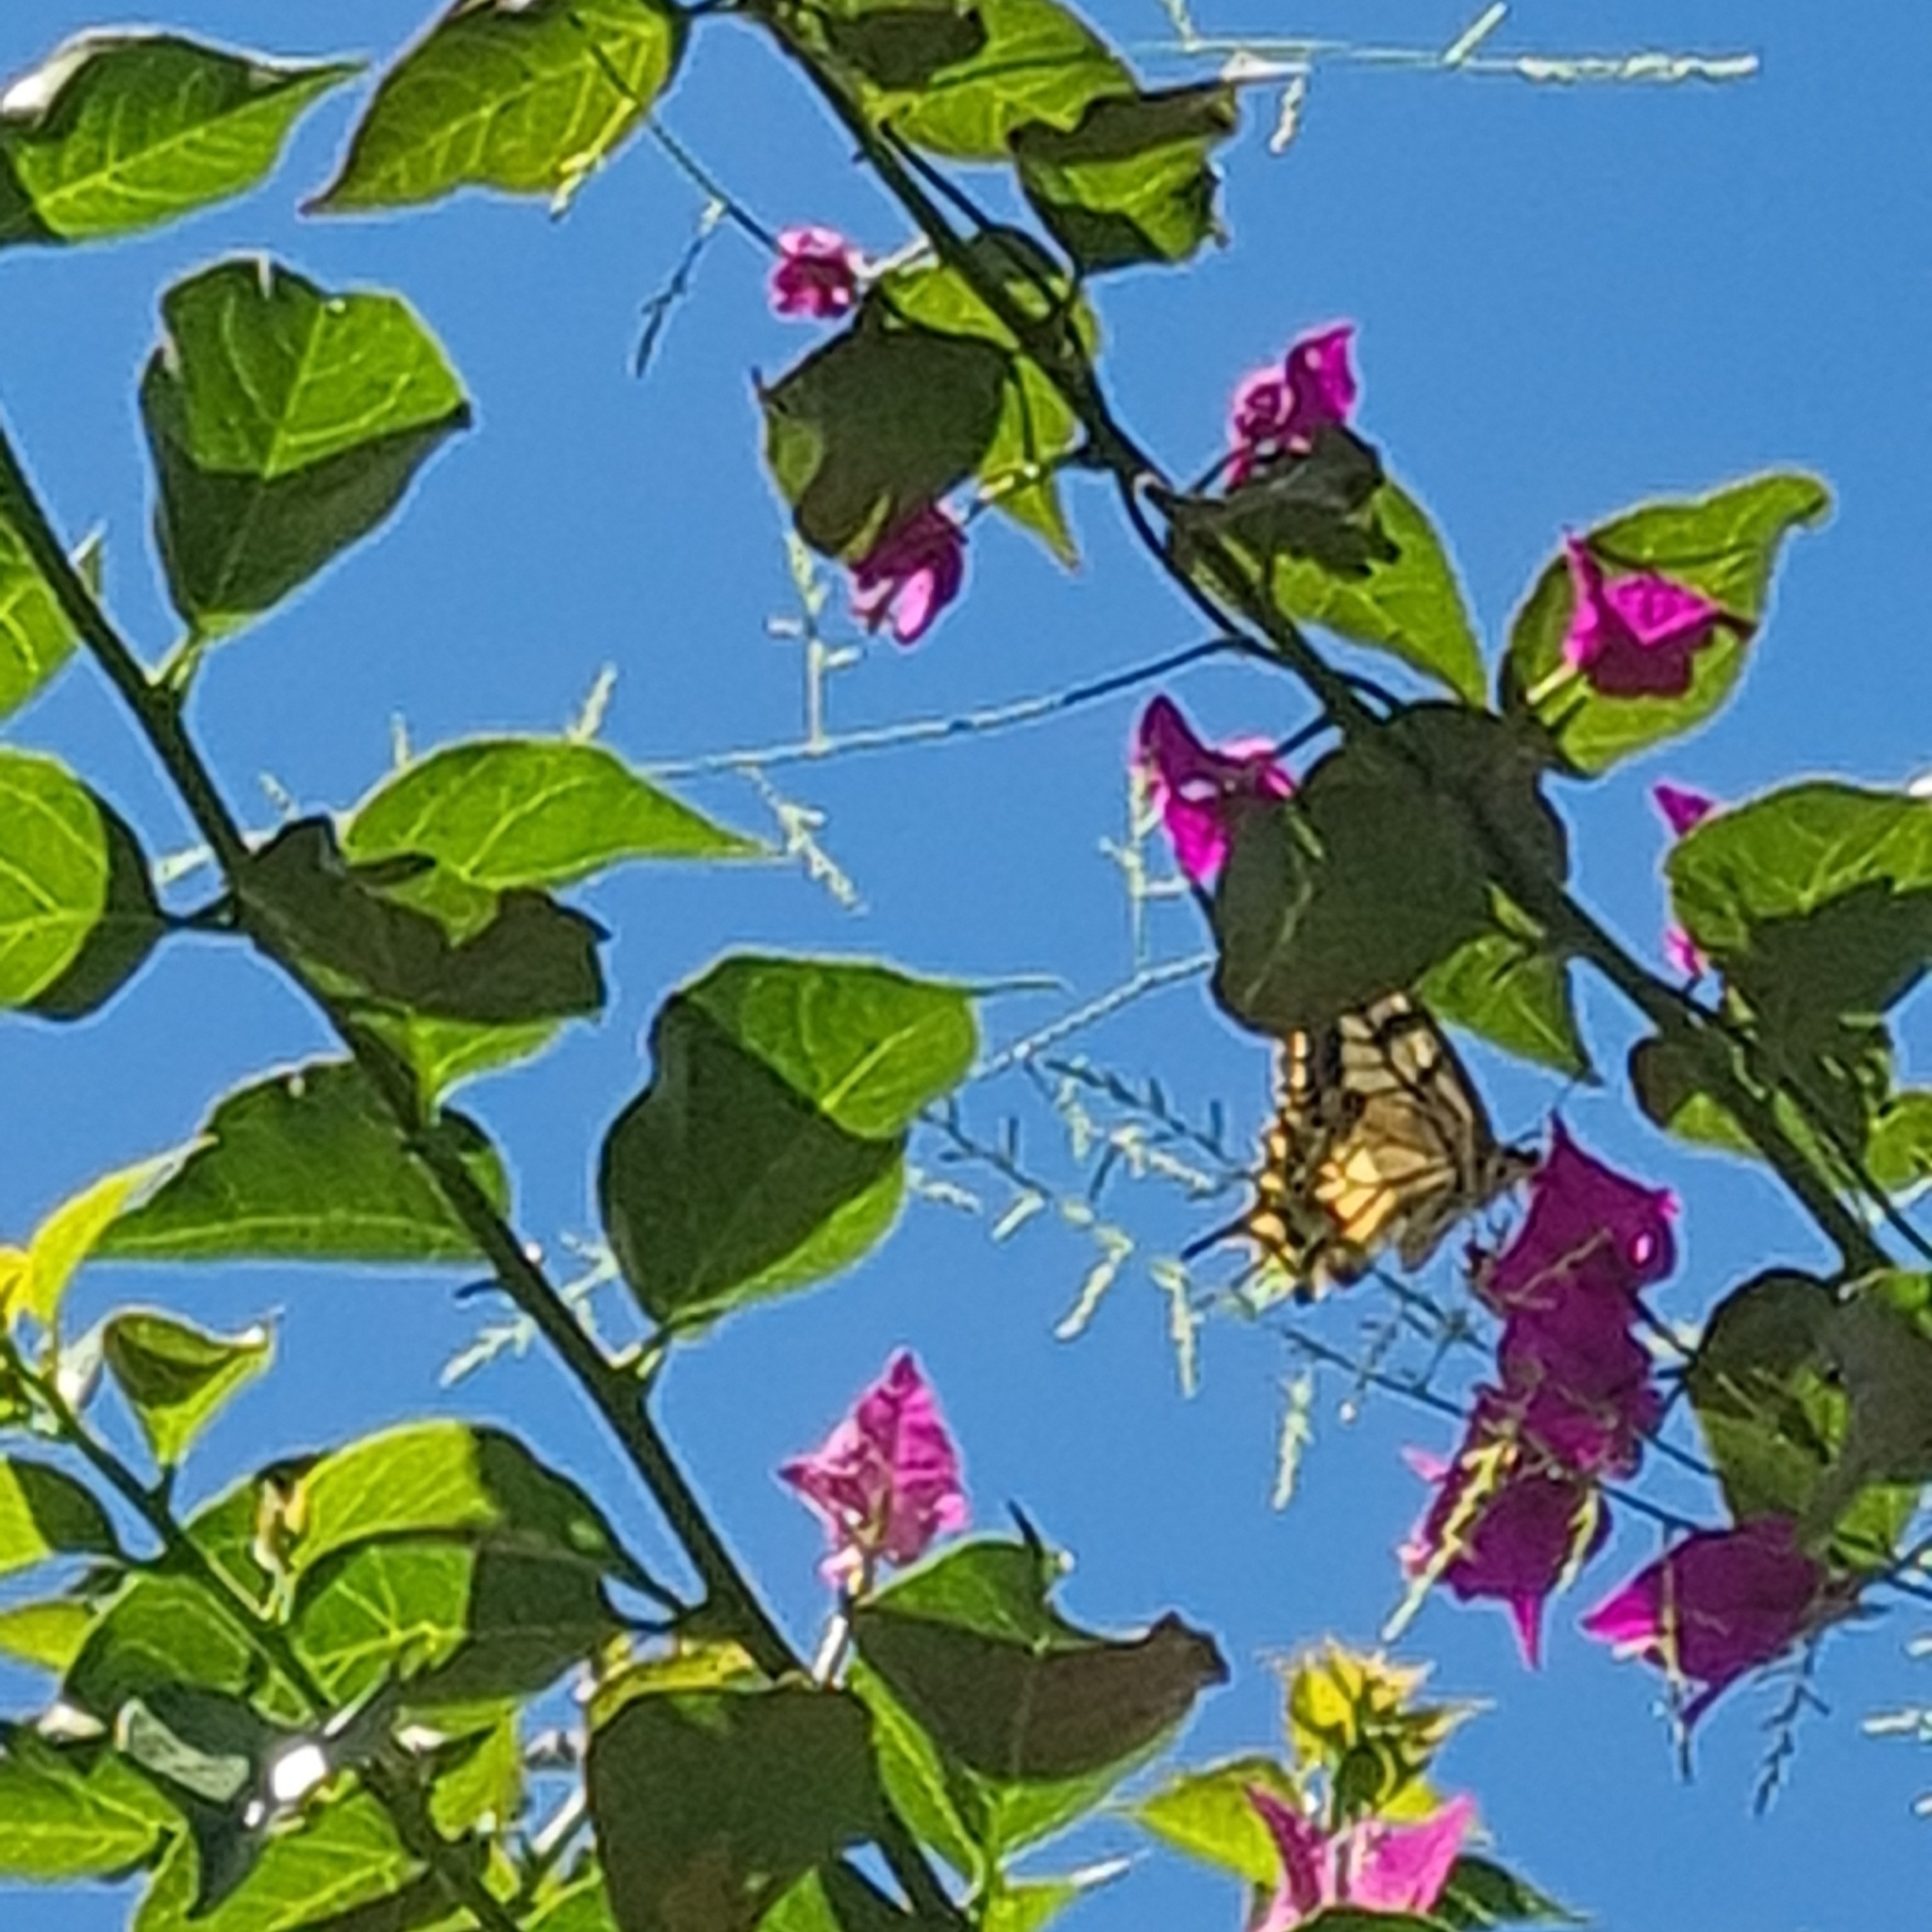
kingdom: Animalia
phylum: Arthropoda
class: Insecta
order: Lepidoptera
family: Papilionidae
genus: Papilio
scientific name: Papilio machaon
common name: Swallowtail
